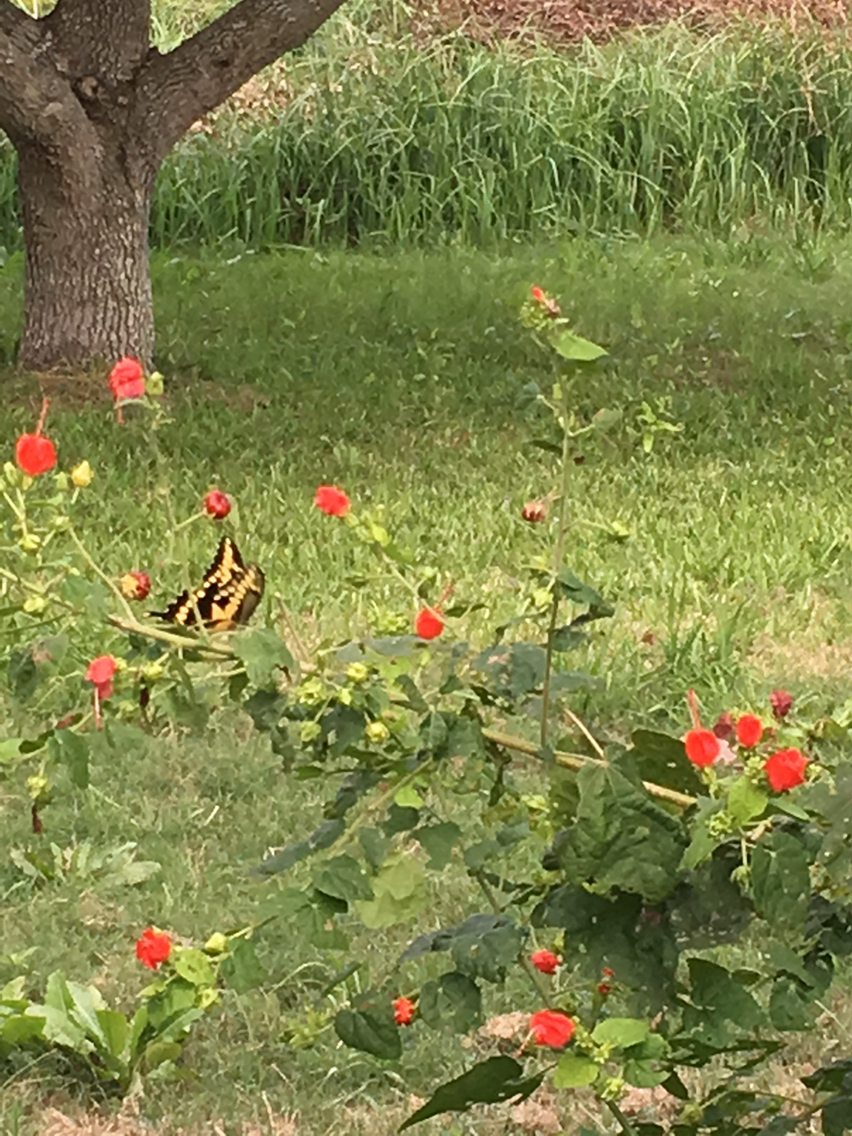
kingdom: Animalia
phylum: Arthropoda
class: Insecta
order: Lepidoptera
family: Papilionidae
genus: Papilio
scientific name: Papilio cresphontes
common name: Giant swallowtail
